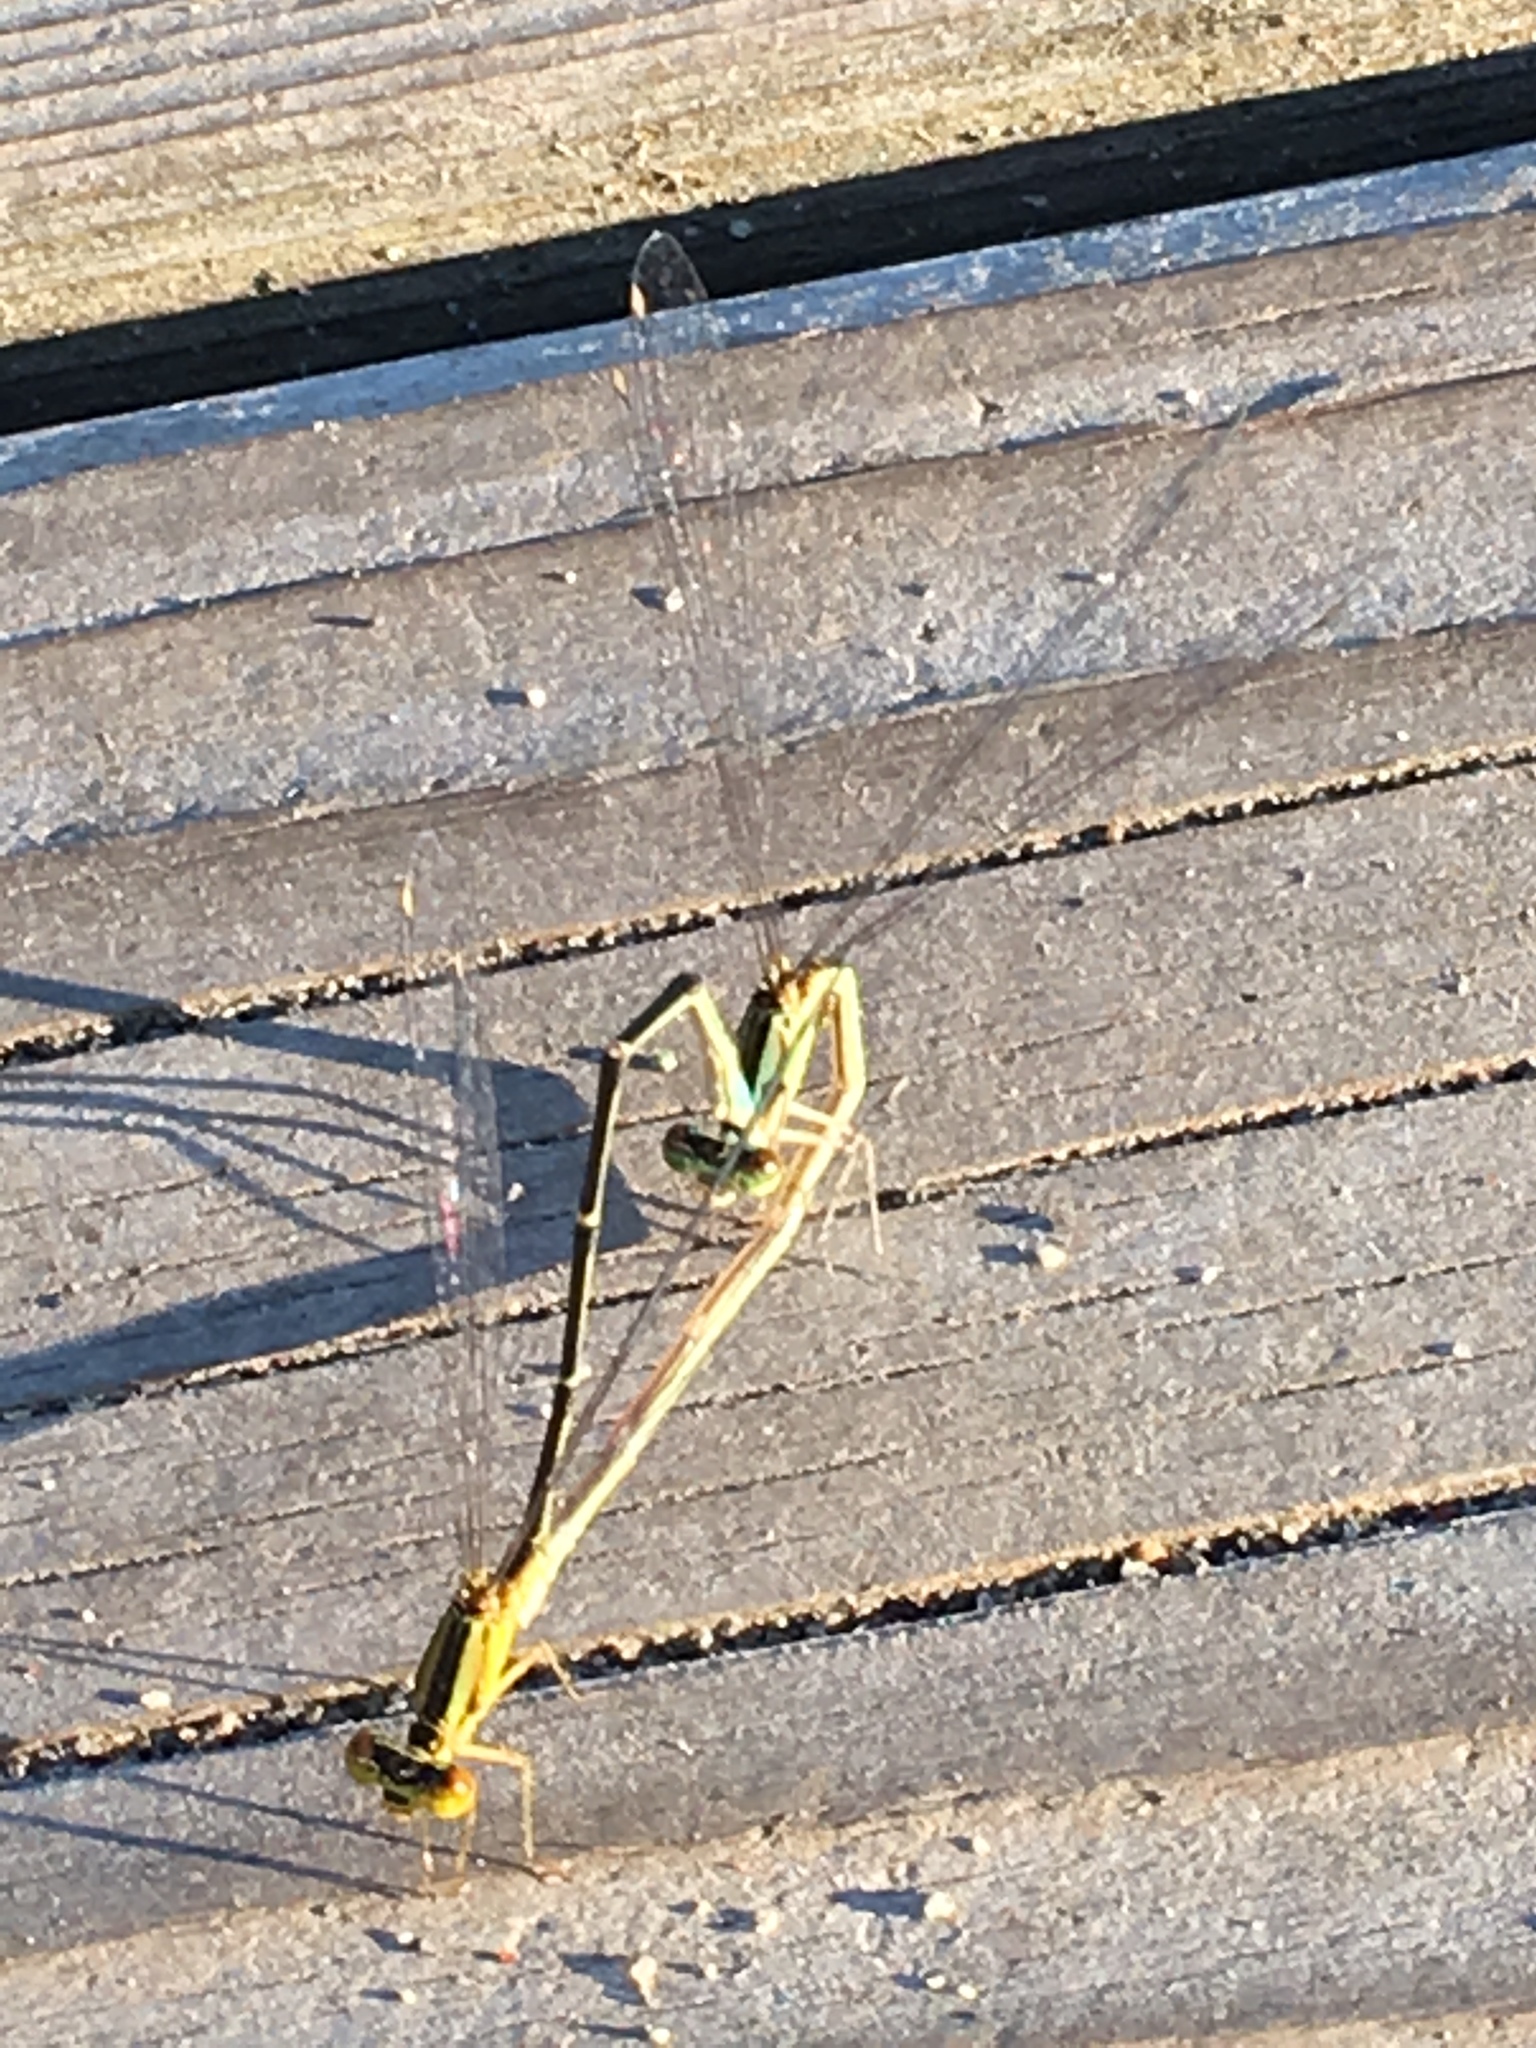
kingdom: Animalia
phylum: Arthropoda
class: Insecta
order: Odonata
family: Coenagrionidae
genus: Enallagma
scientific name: Enallagma vesperum
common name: Vesper bluet
